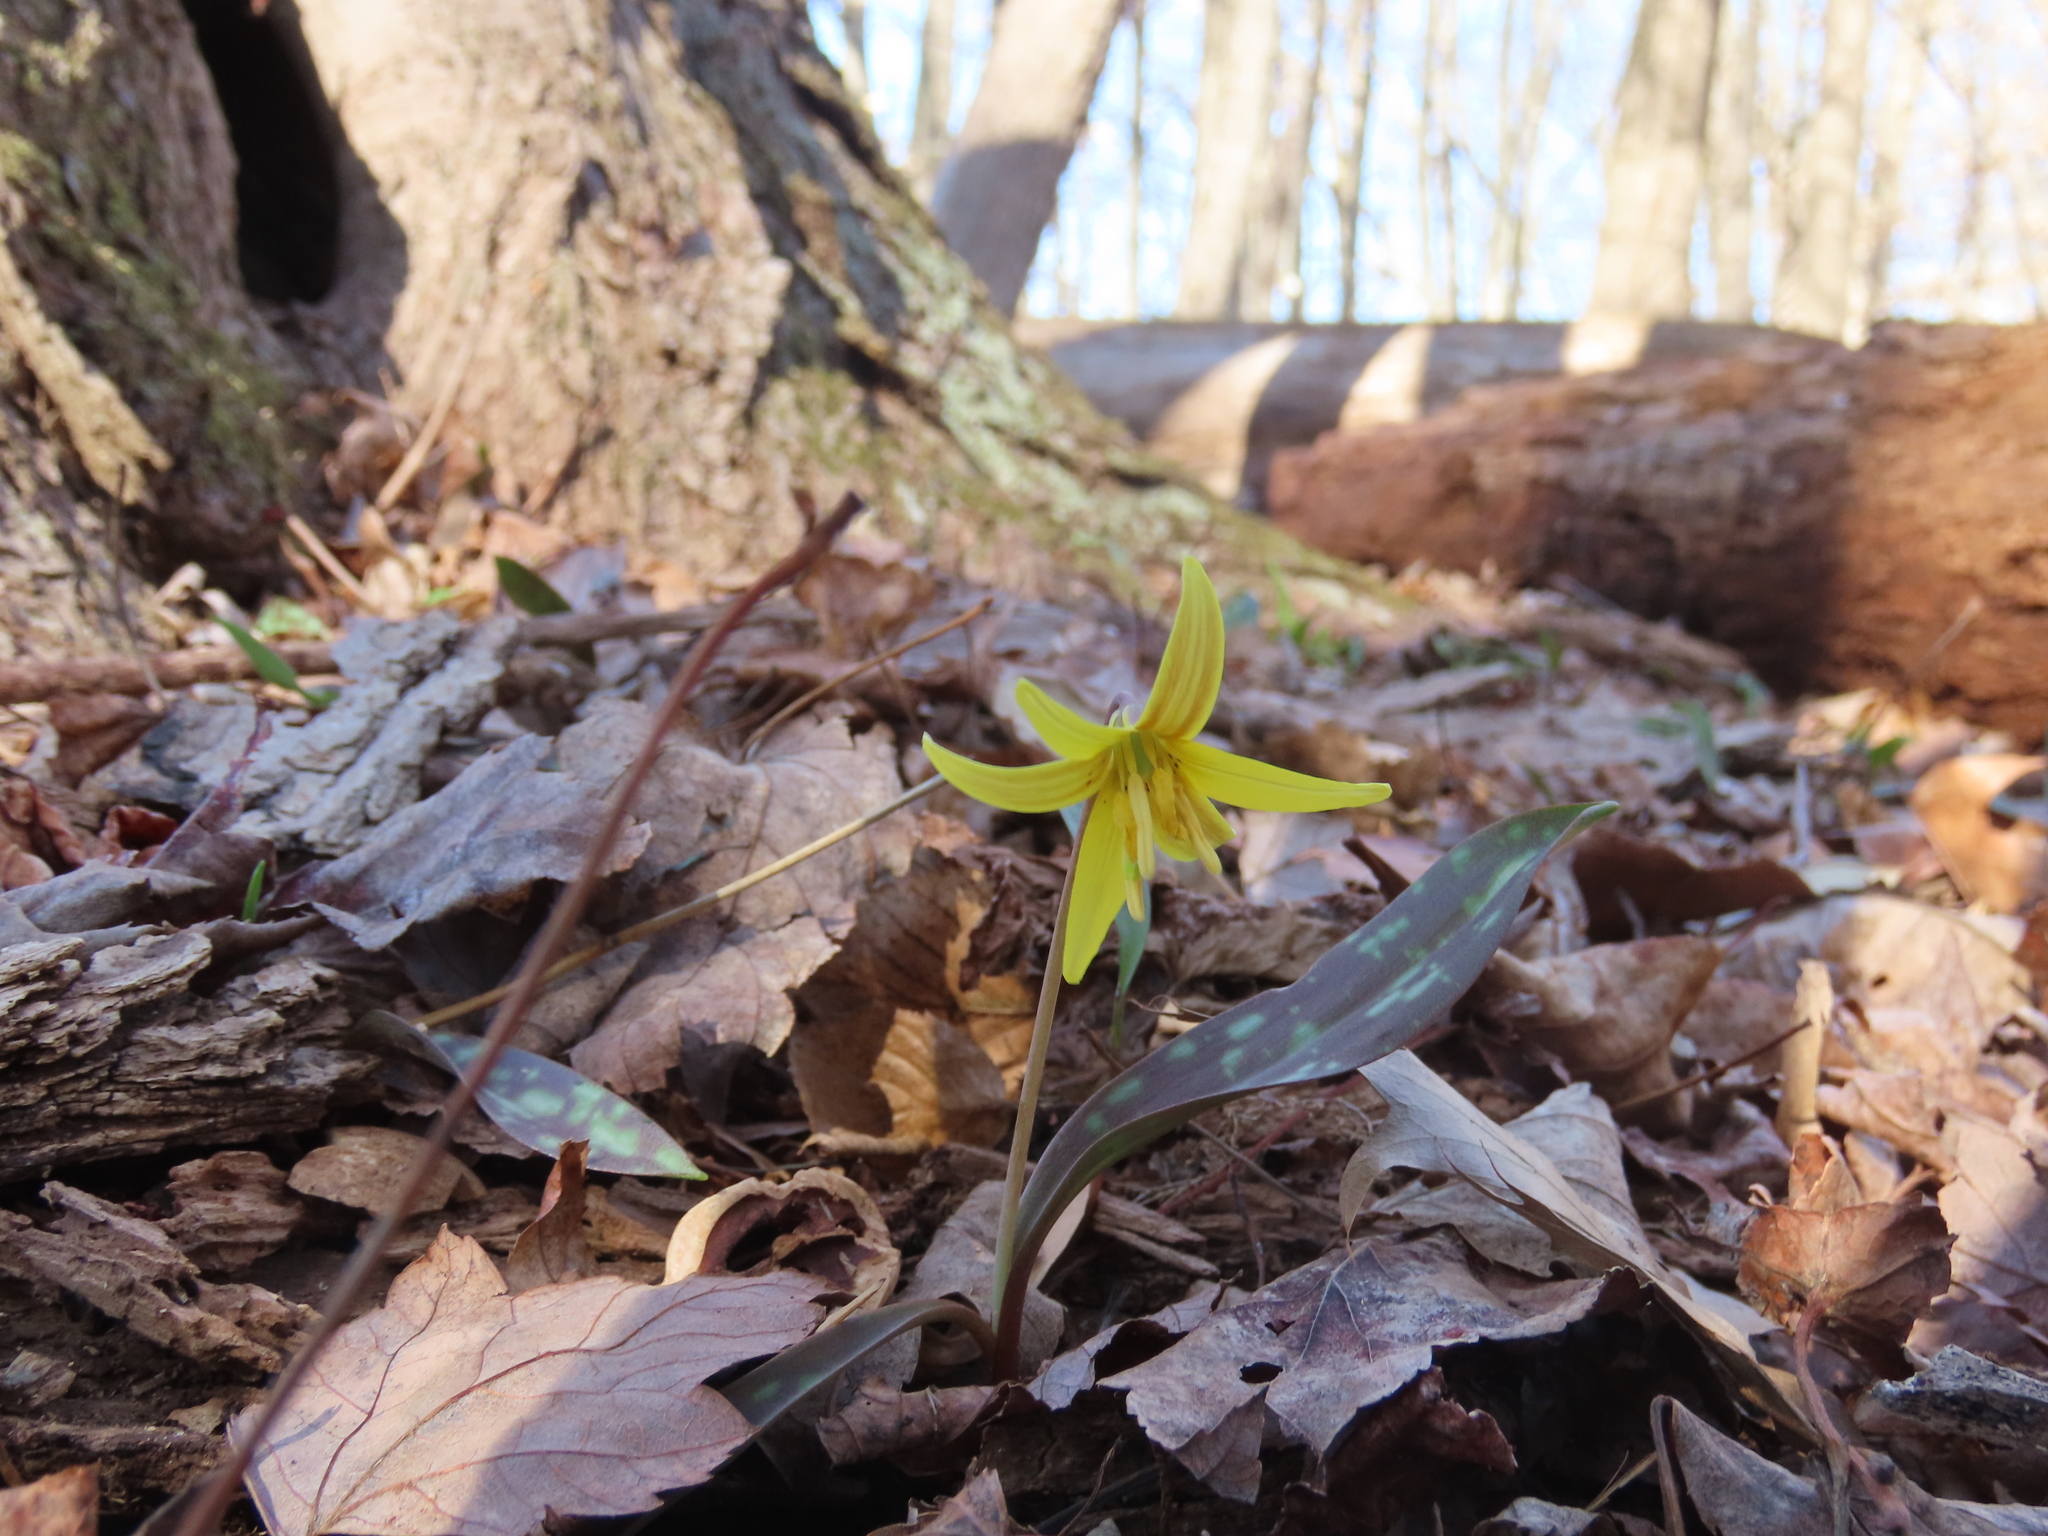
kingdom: Plantae
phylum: Tracheophyta
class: Liliopsida
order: Liliales
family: Liliaceae
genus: Erythronium
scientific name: Erythronium americanum
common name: Yellow adder's-tongue
